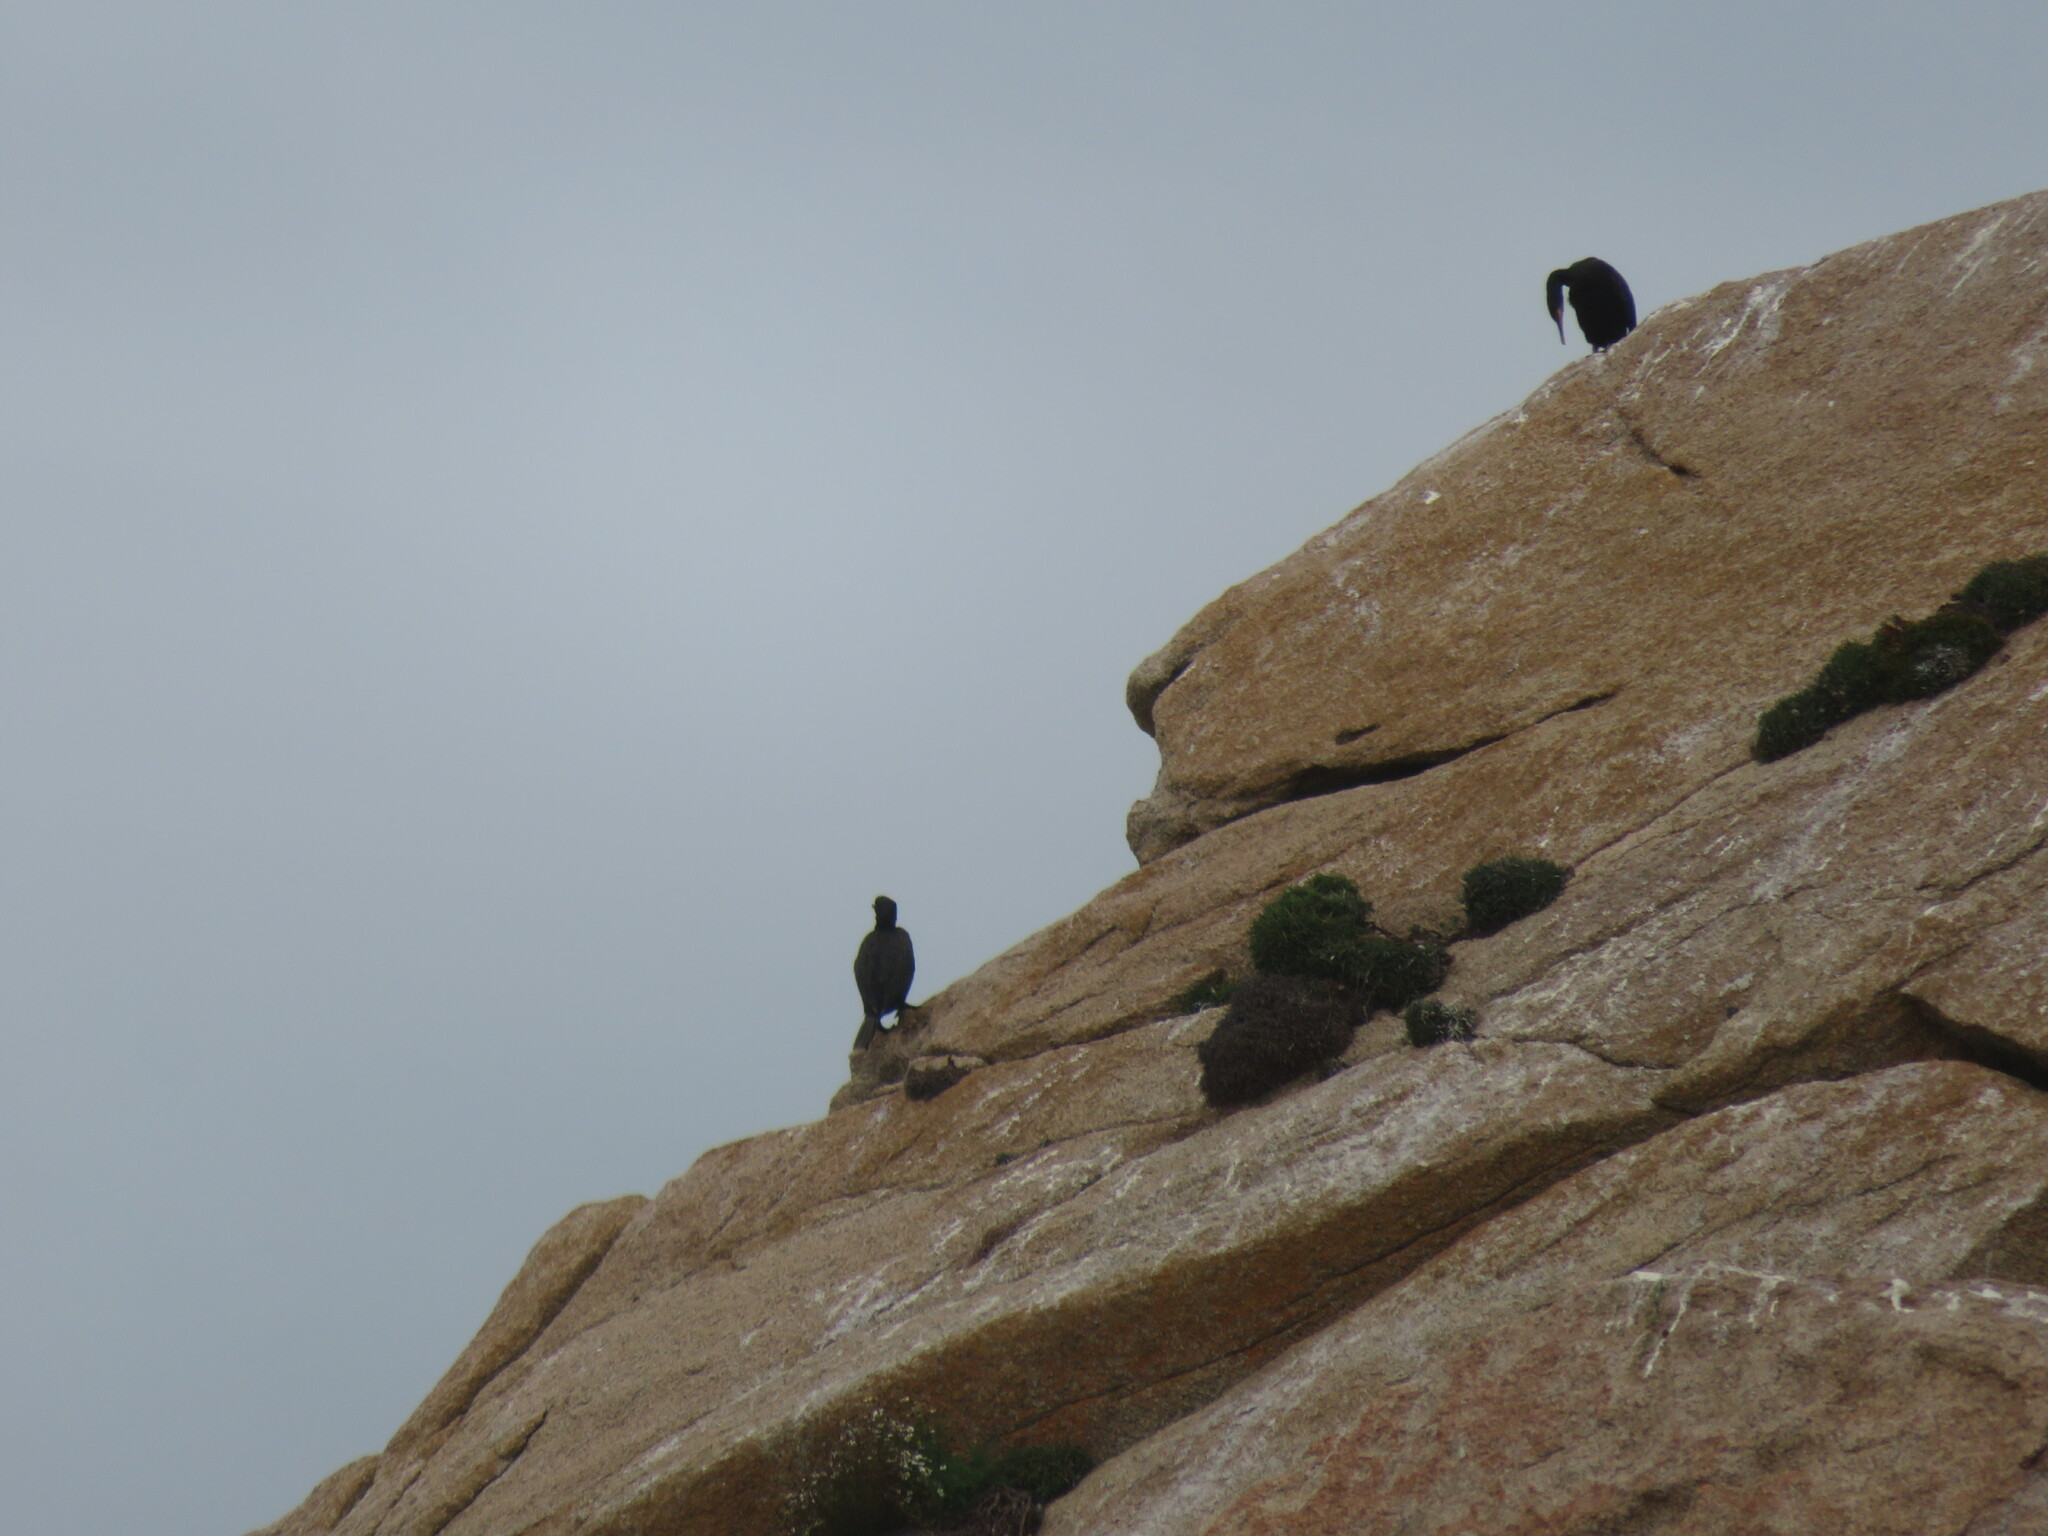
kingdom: Animalia
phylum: Chordata
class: Aves
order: Suliformes
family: Phalacrocoracidae
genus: Phalacrocorax
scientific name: Phalacrocorax aristotelis
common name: European shag
